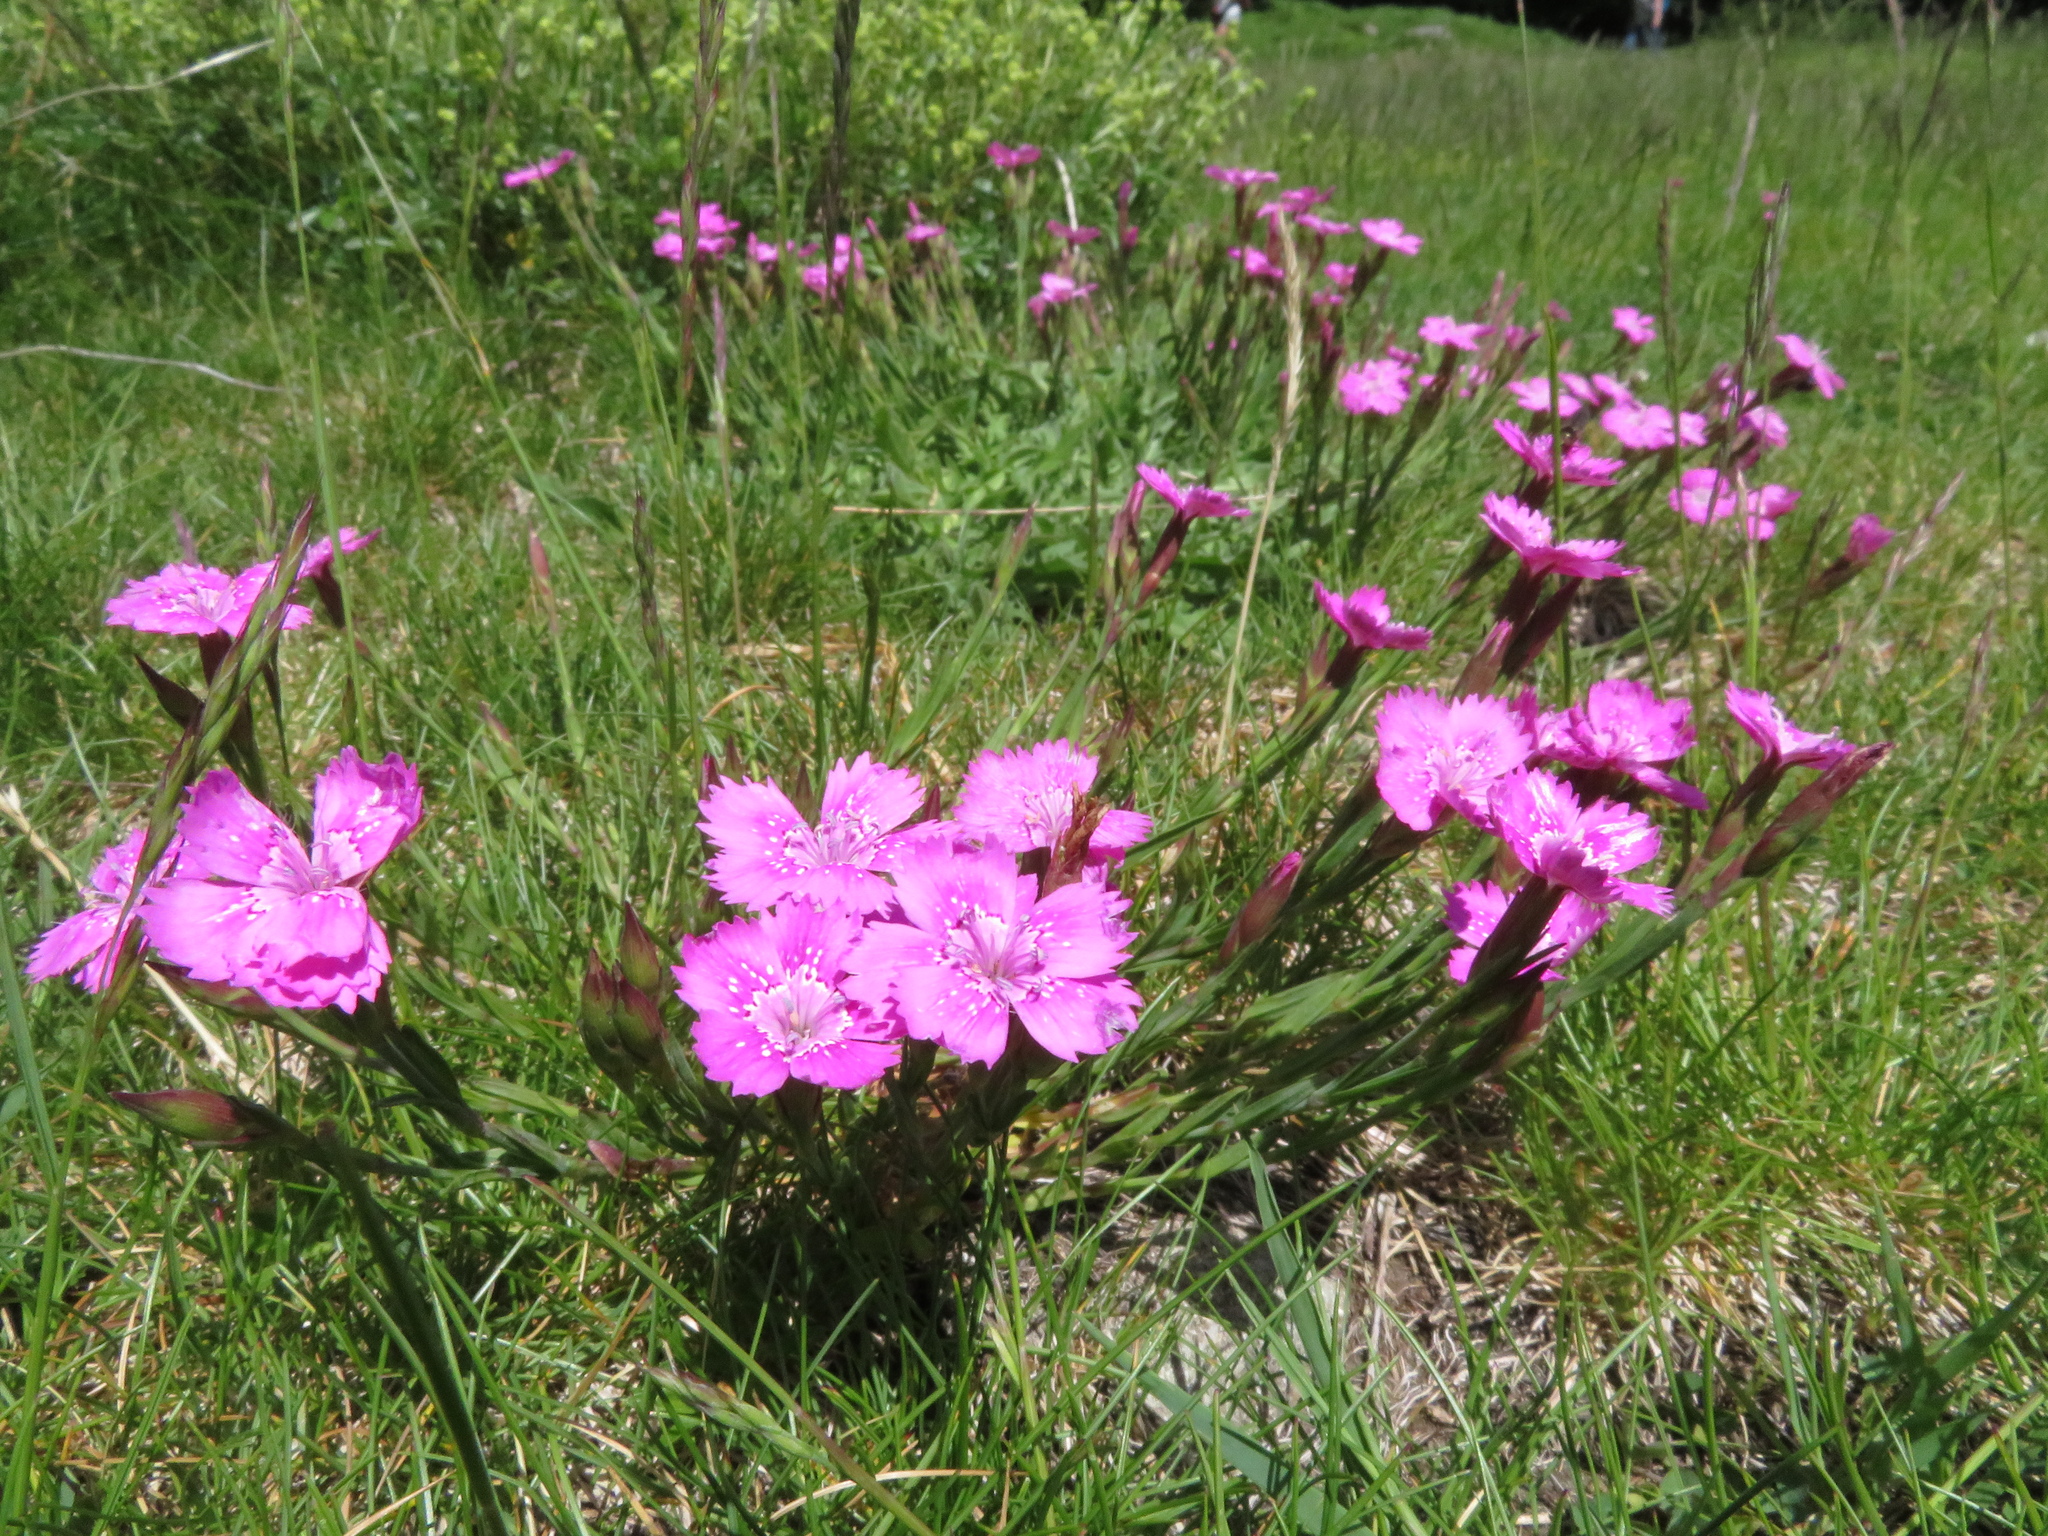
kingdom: Plantae
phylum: Tracheophyta
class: Magnoliopsida
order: Caryophyllales
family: Caryophyllaceae
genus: Dianthus
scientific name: Dianthus deltoides
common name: Maiden pink
